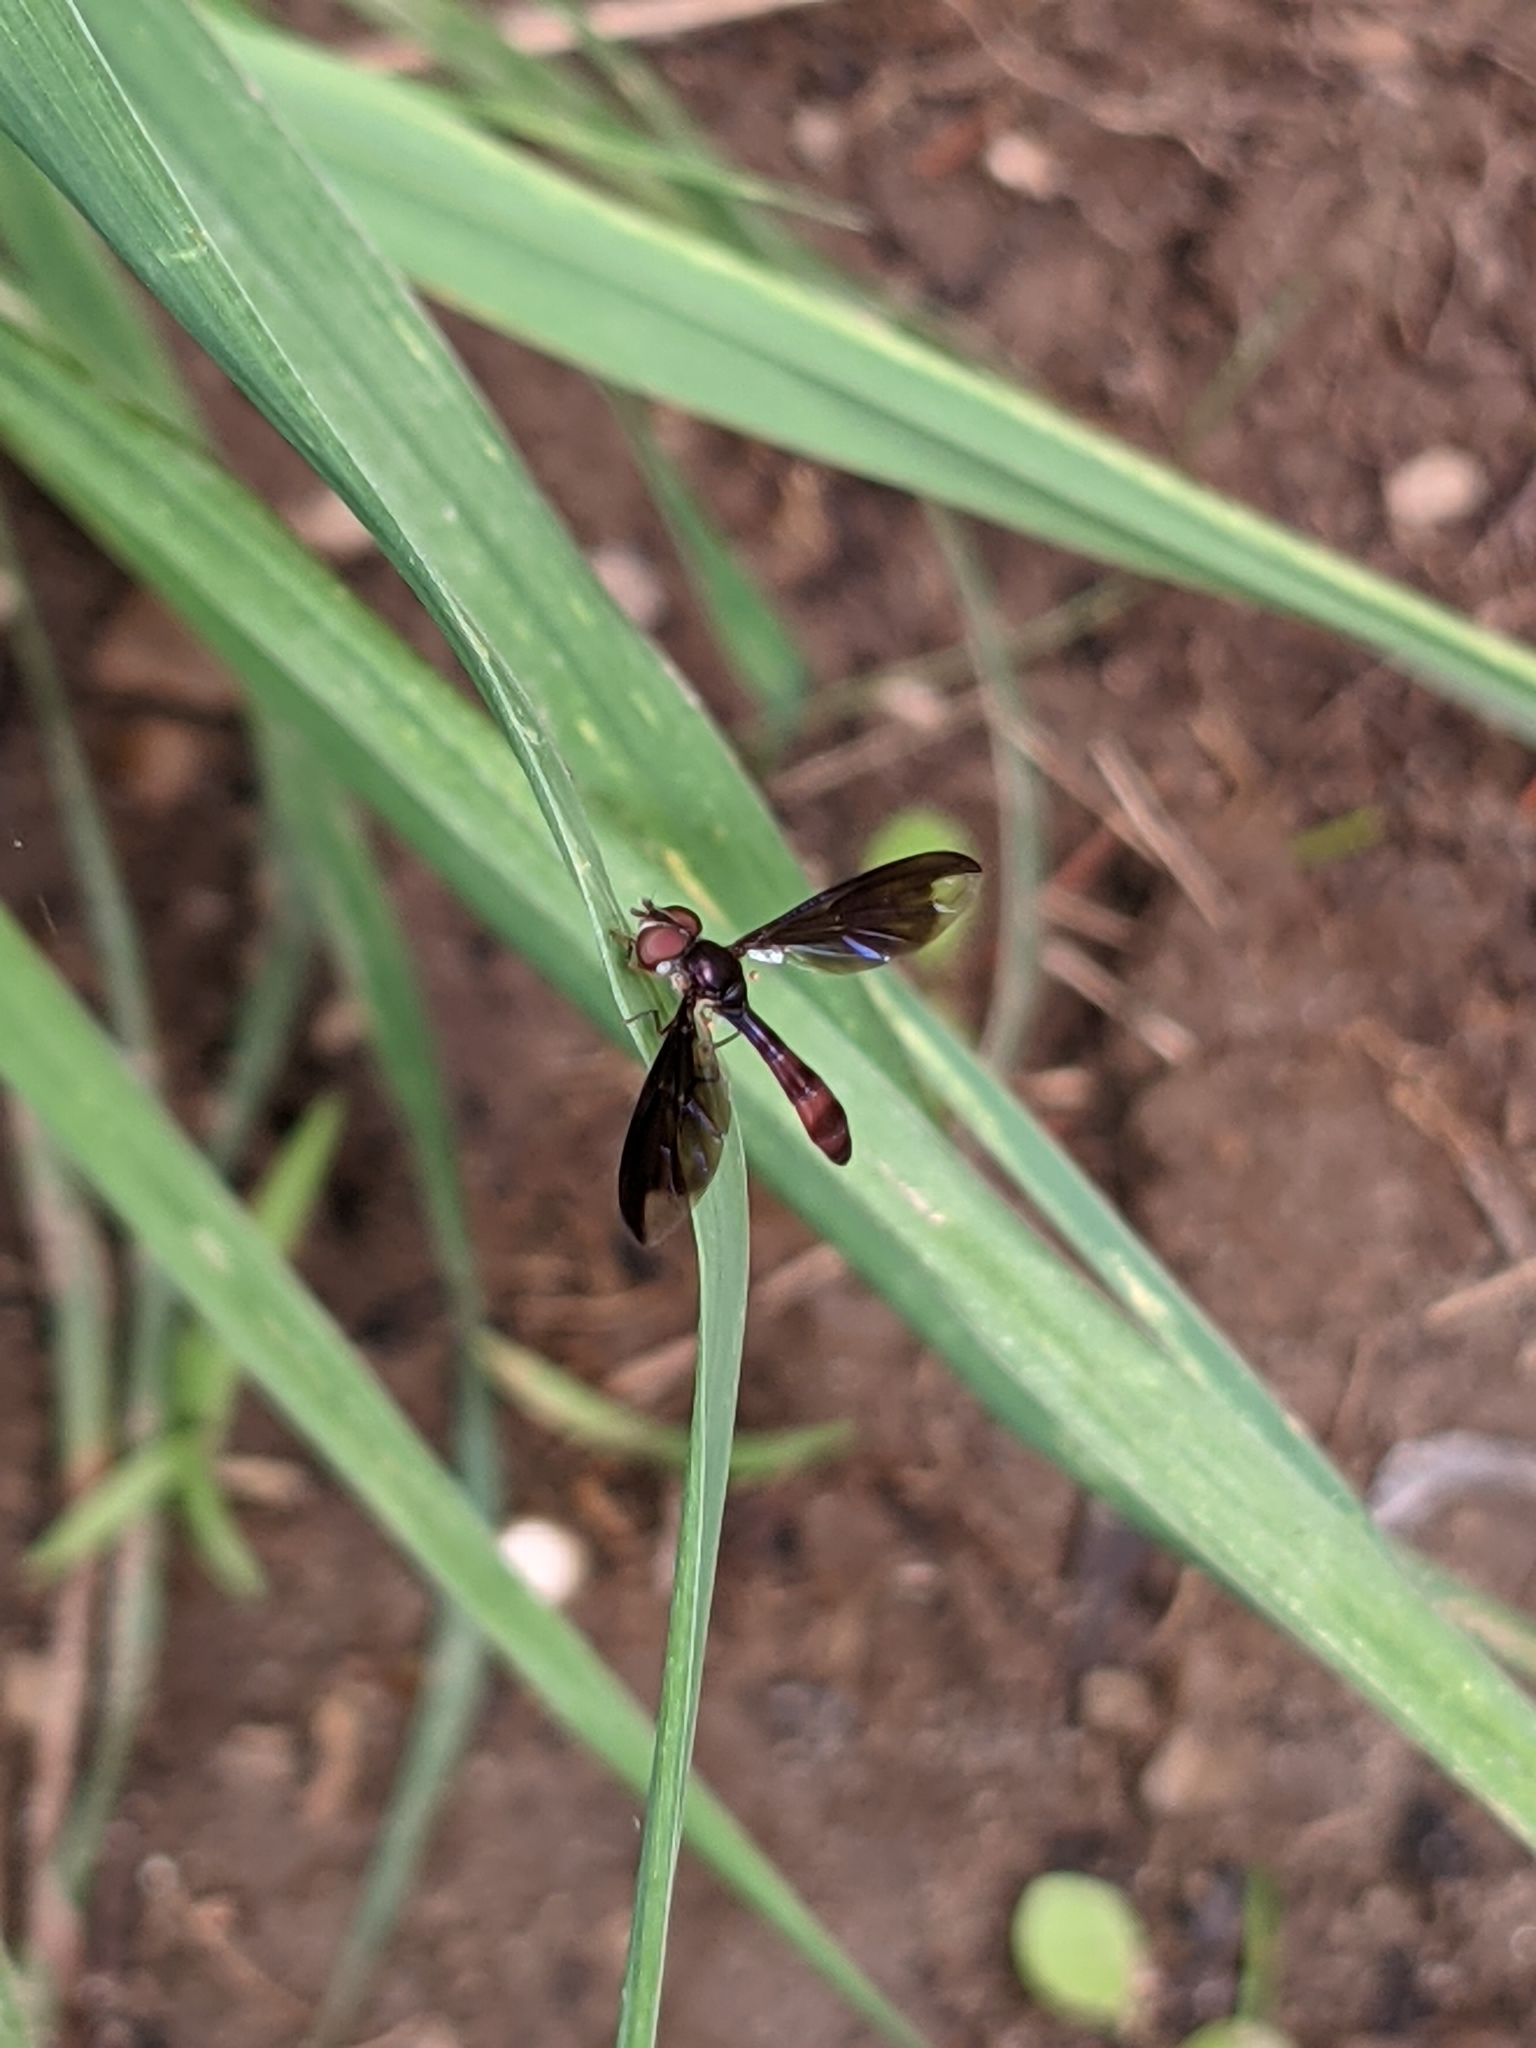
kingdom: Animalia
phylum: Arthropoda
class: Insecta
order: Diptera
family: Syrphidae
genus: Ocyptamus
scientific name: Ocyptamus fuscipennis
